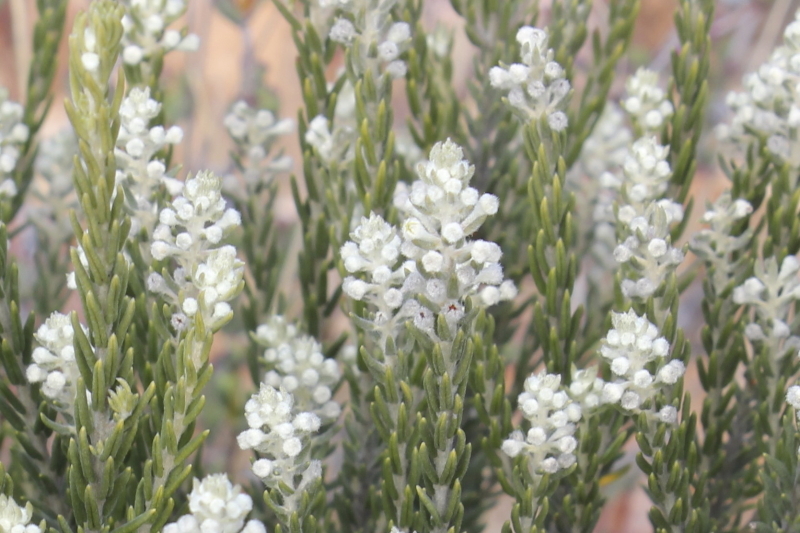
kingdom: Plantae
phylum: Tracheophyta
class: Magnoliopsida
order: Rosales
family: Rhamnaceae
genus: Phylica
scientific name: Phylica axillaris
